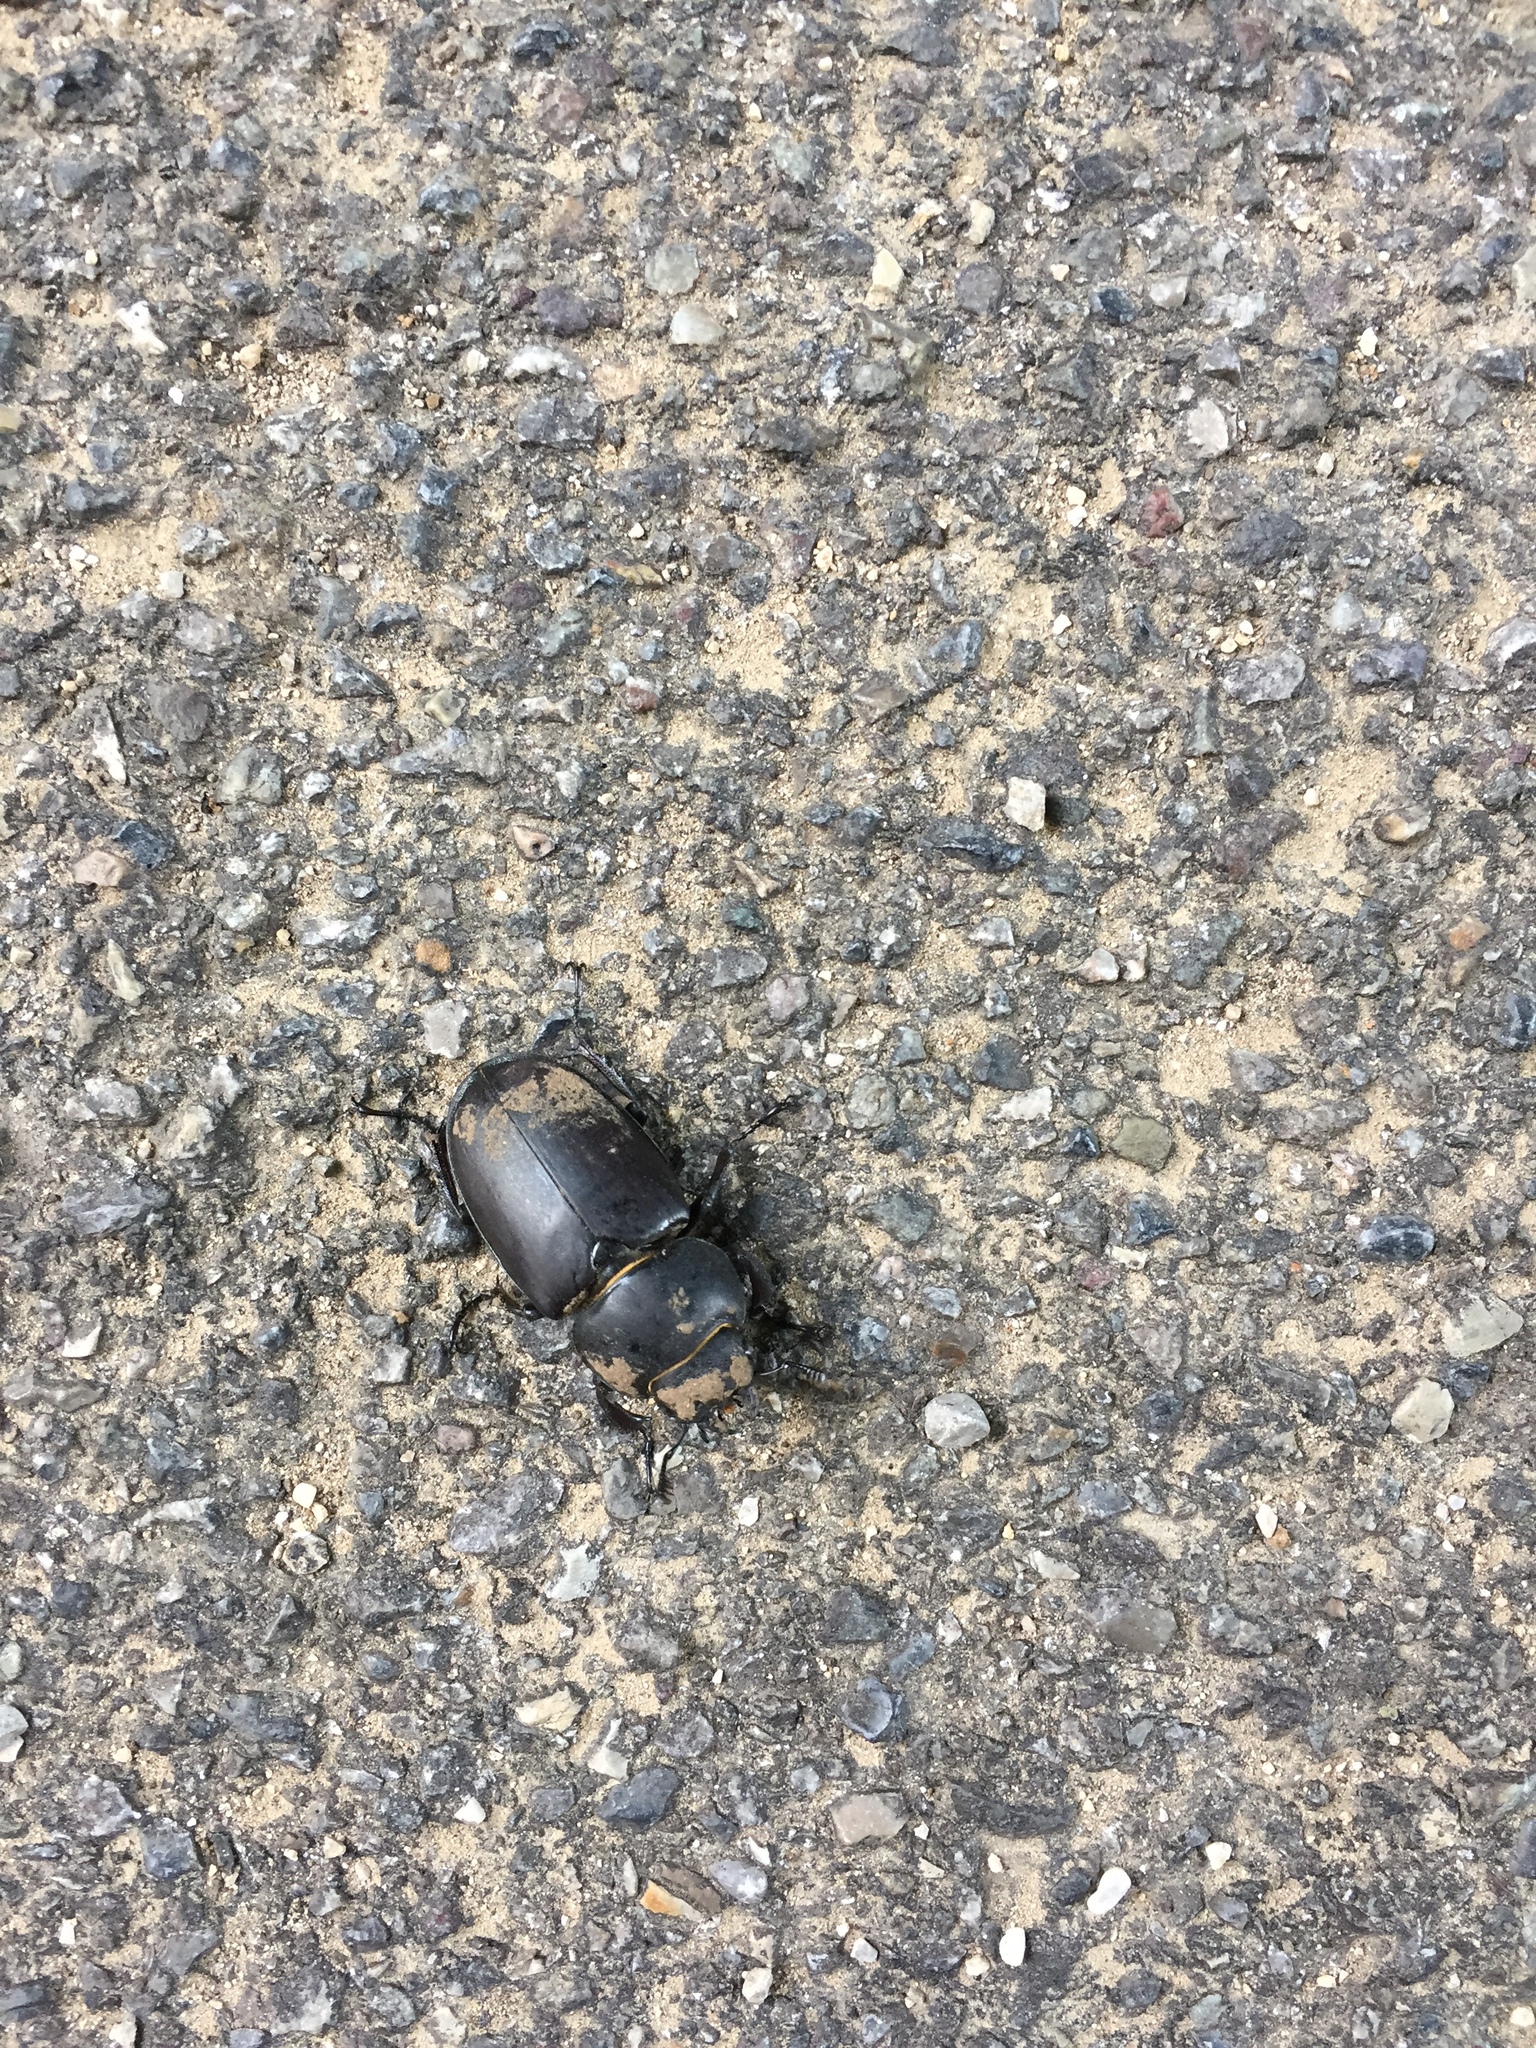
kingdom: Animalia
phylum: Arthropoda
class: Insecta
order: Coleoptera
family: Lucanidae
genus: Lucanus
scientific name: Lucanus cervus
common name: Stag beetle
